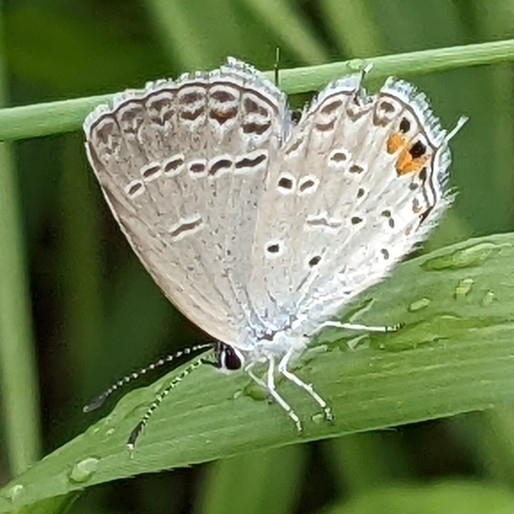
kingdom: Animalia
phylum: Arthropoda
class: Insecta
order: Lepidoptera
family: Lycaenidae
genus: Elkalyce
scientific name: Elkalyce comyntas
